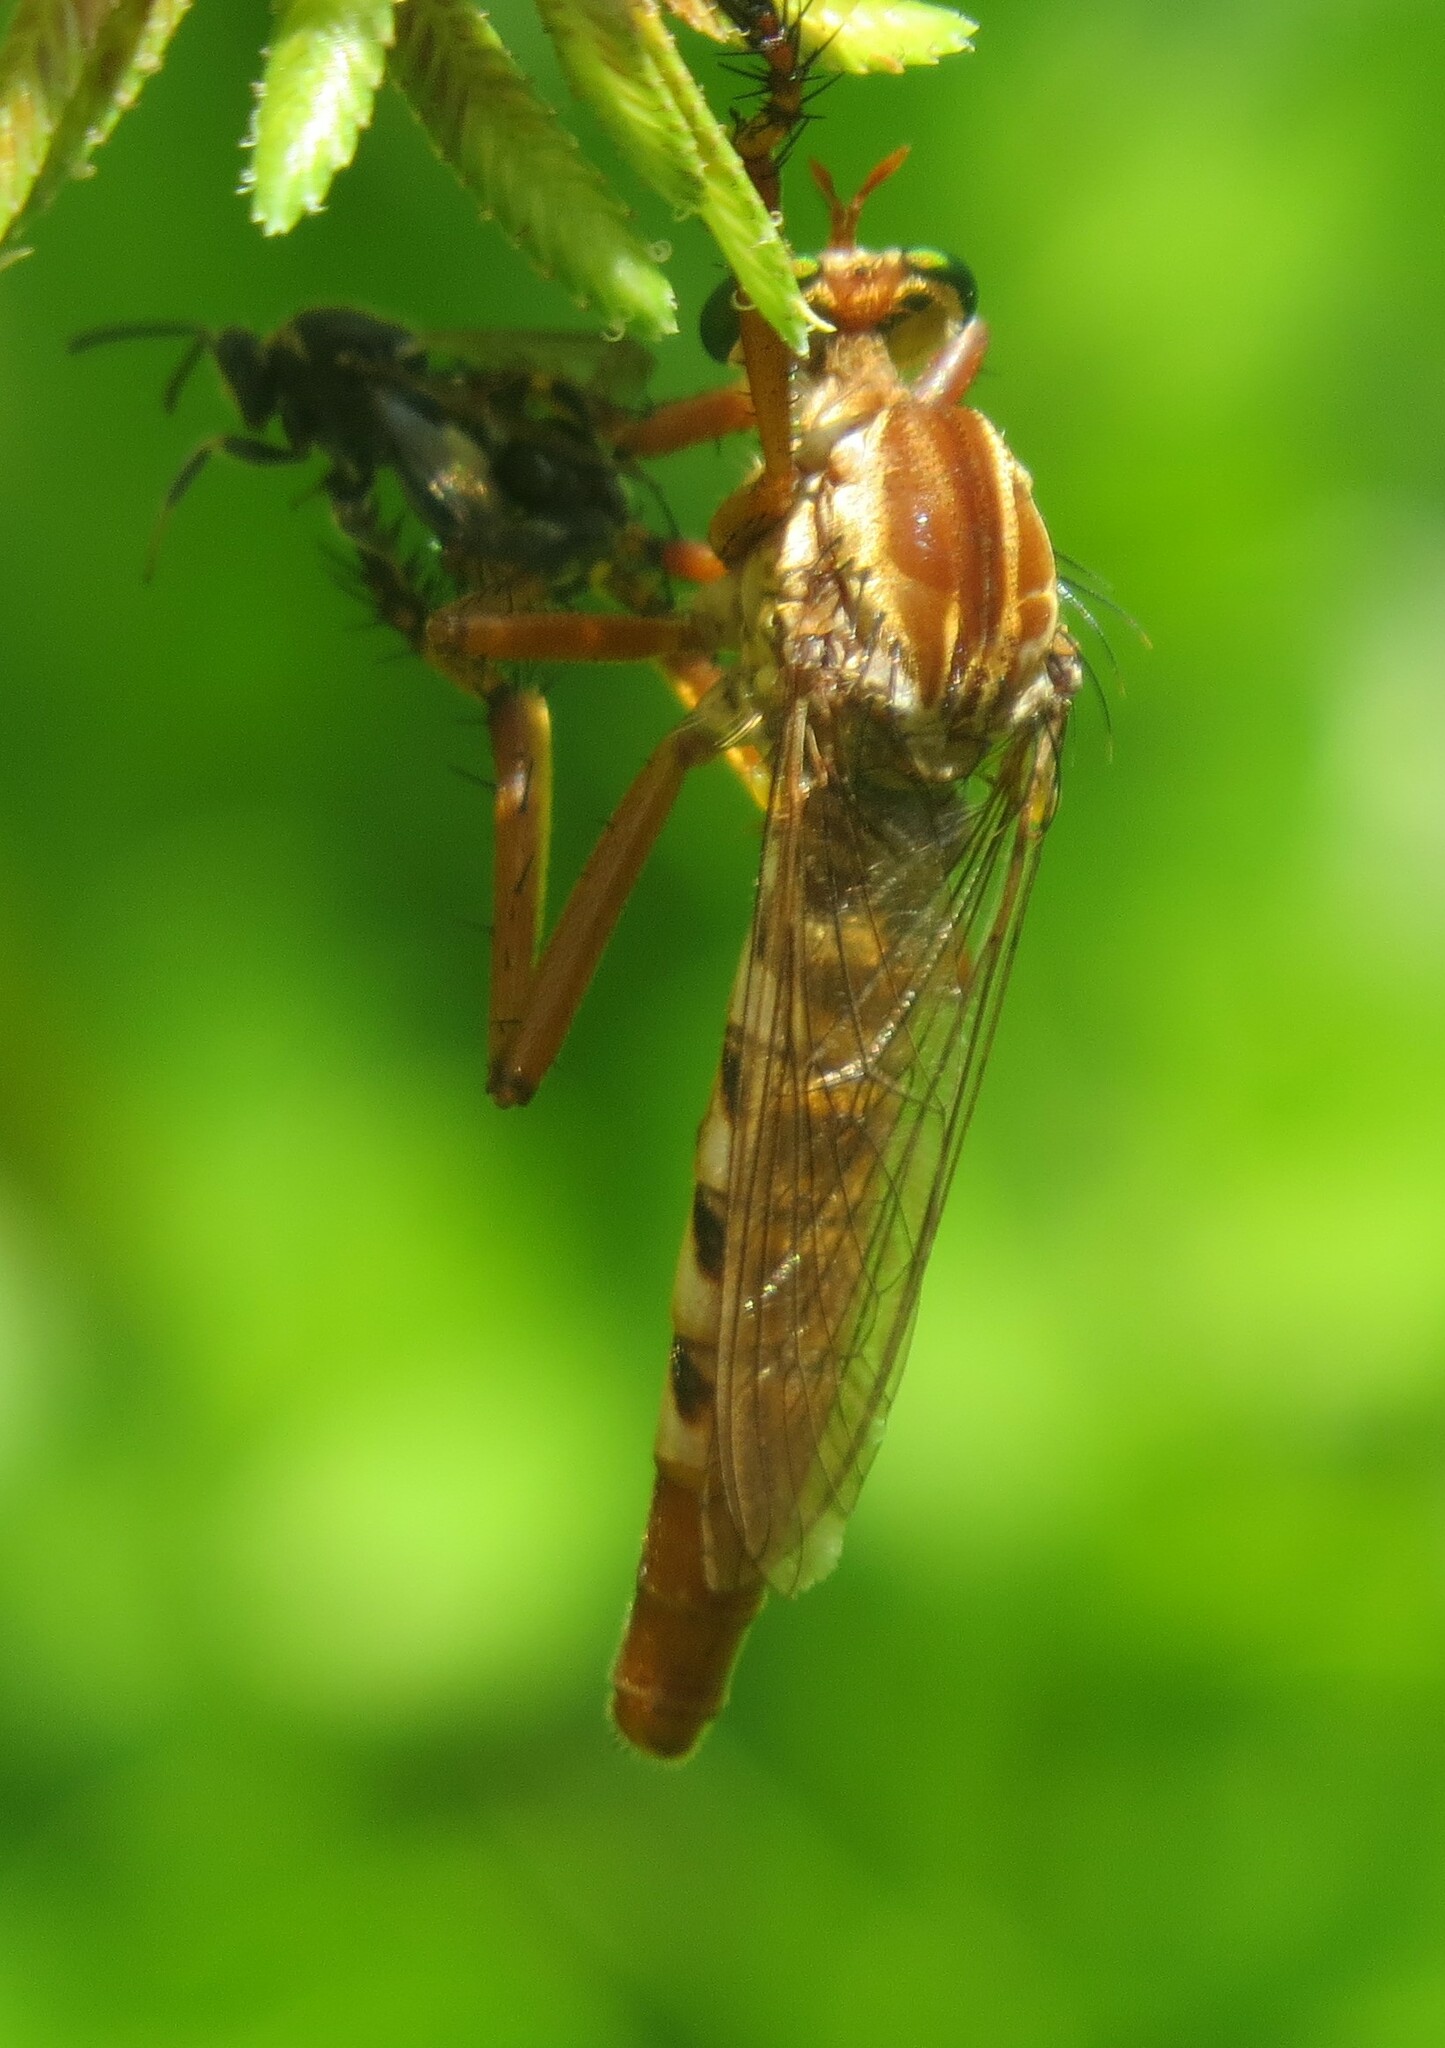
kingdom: Animalia
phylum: Arthropoda
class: Insecta
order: Diptera
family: Asilidae
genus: Diogmites
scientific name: Diogmites angustipennis
